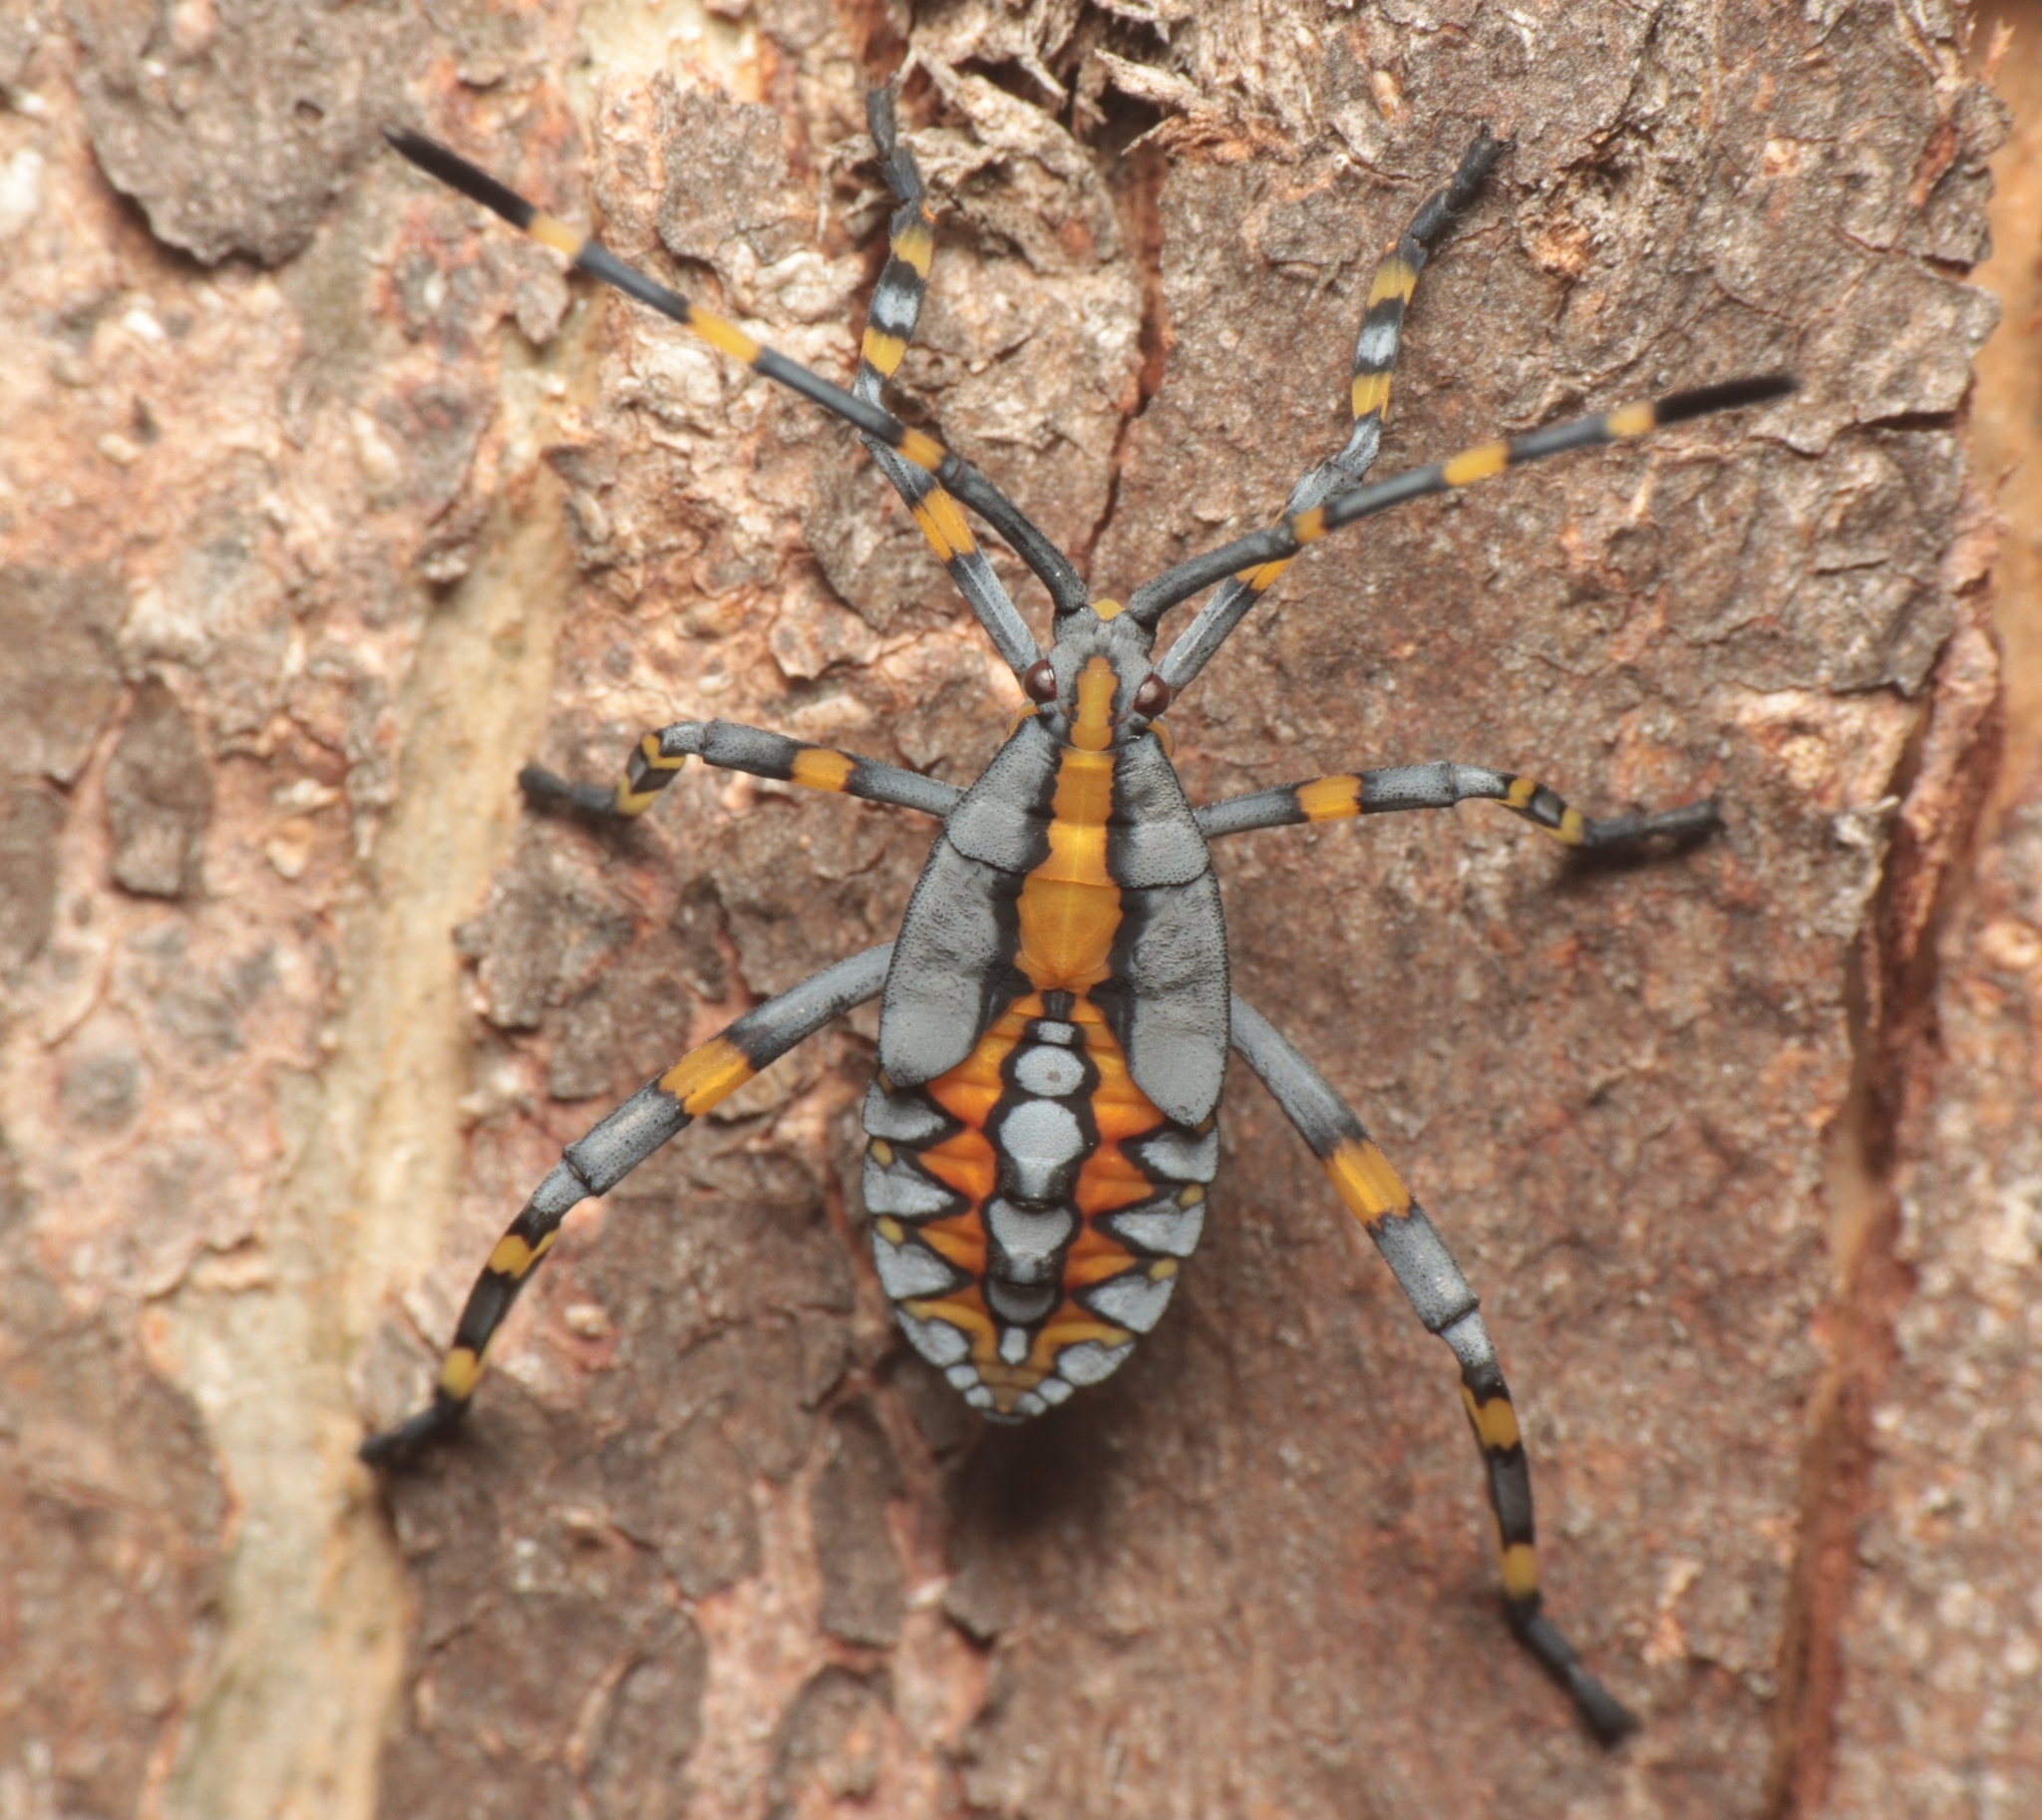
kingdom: Animalia
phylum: Arthropoda
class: Insecta
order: Hemiptera
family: Coreidae
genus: Amorbus
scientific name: Amorbus atomarius
